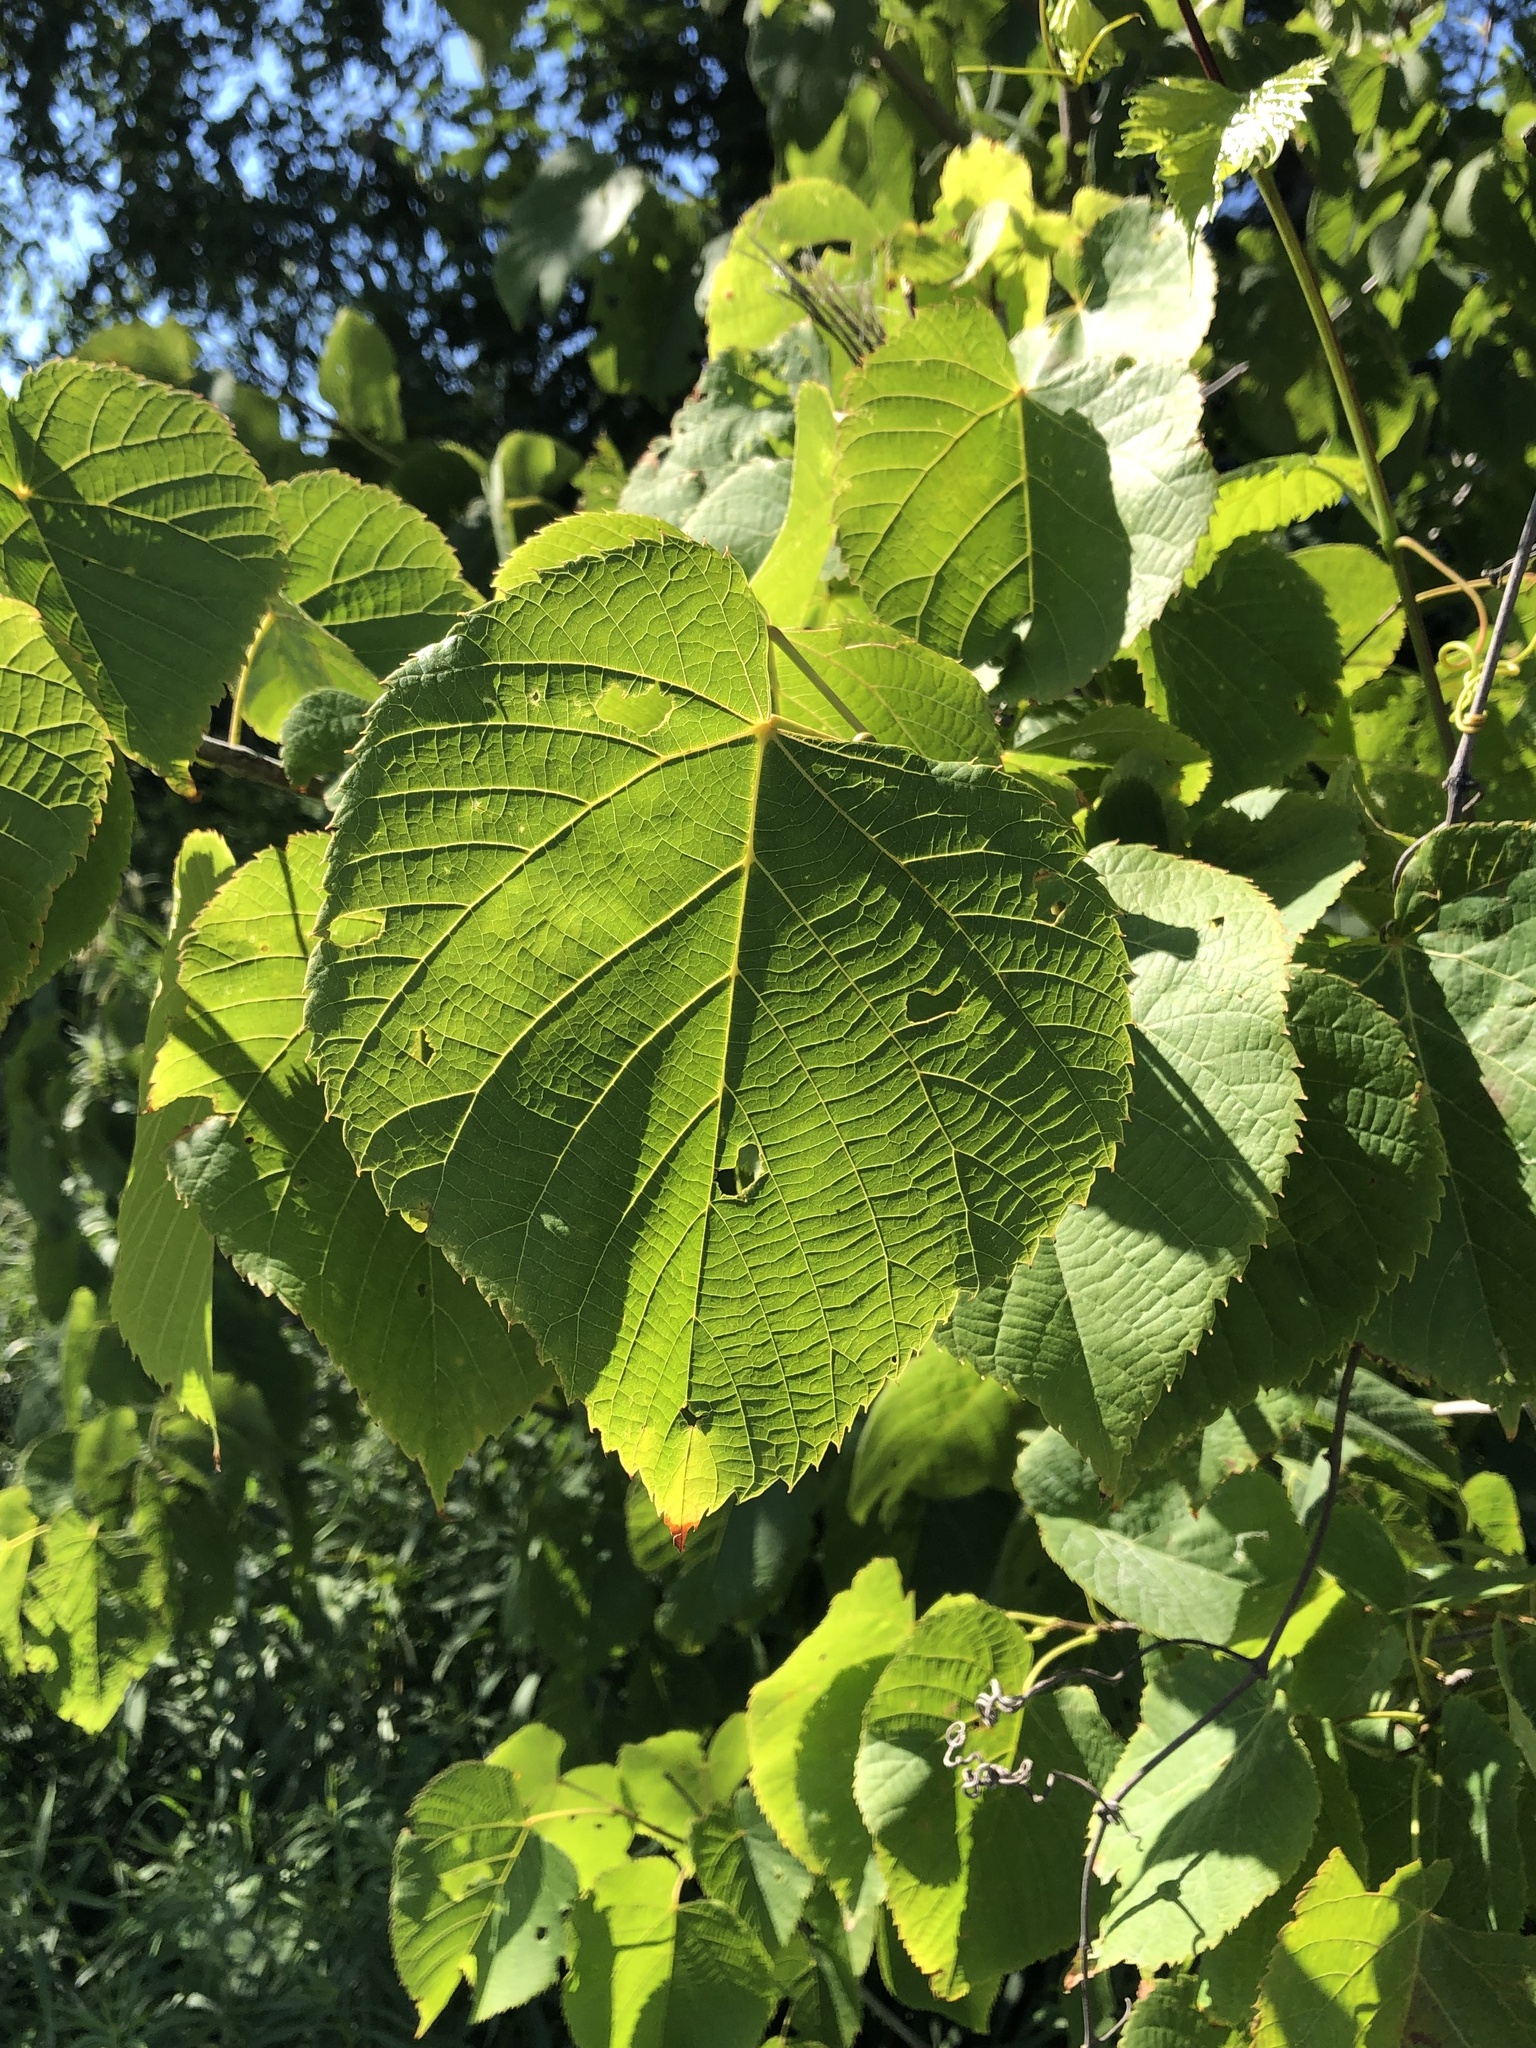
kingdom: Plantae
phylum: Tracheophyta
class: Magnoliopsida
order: Malvales
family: Malvaceae
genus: Tilia
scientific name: Tilia americana
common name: Basswood
